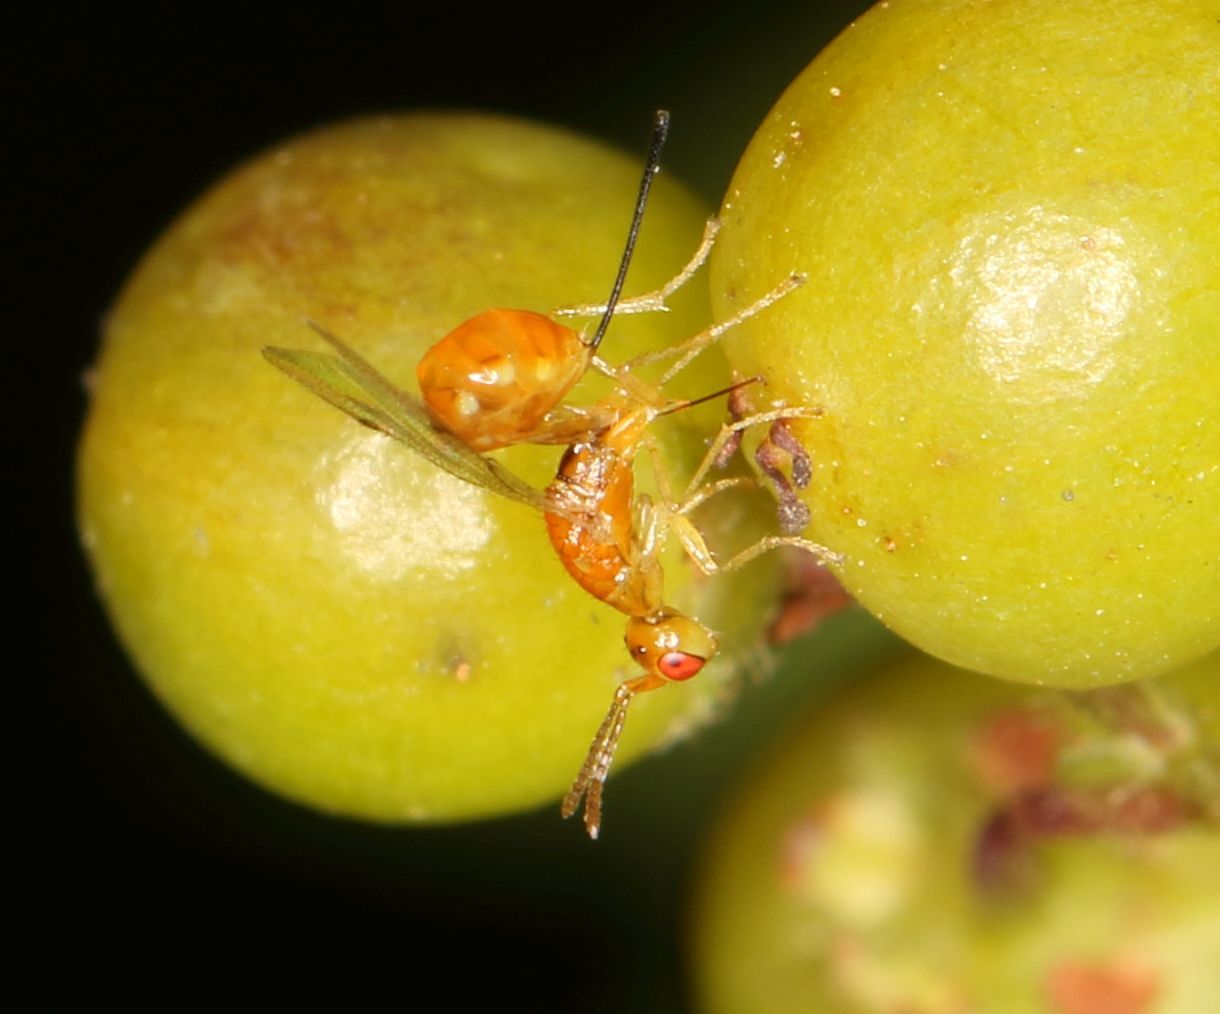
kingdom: Animalia
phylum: Arthropoda
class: Insecta
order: Hymenoptera
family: Torymidae
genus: Megastigmus
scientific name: Megastigmus transvaalensis
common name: Seed chalcid wasp
